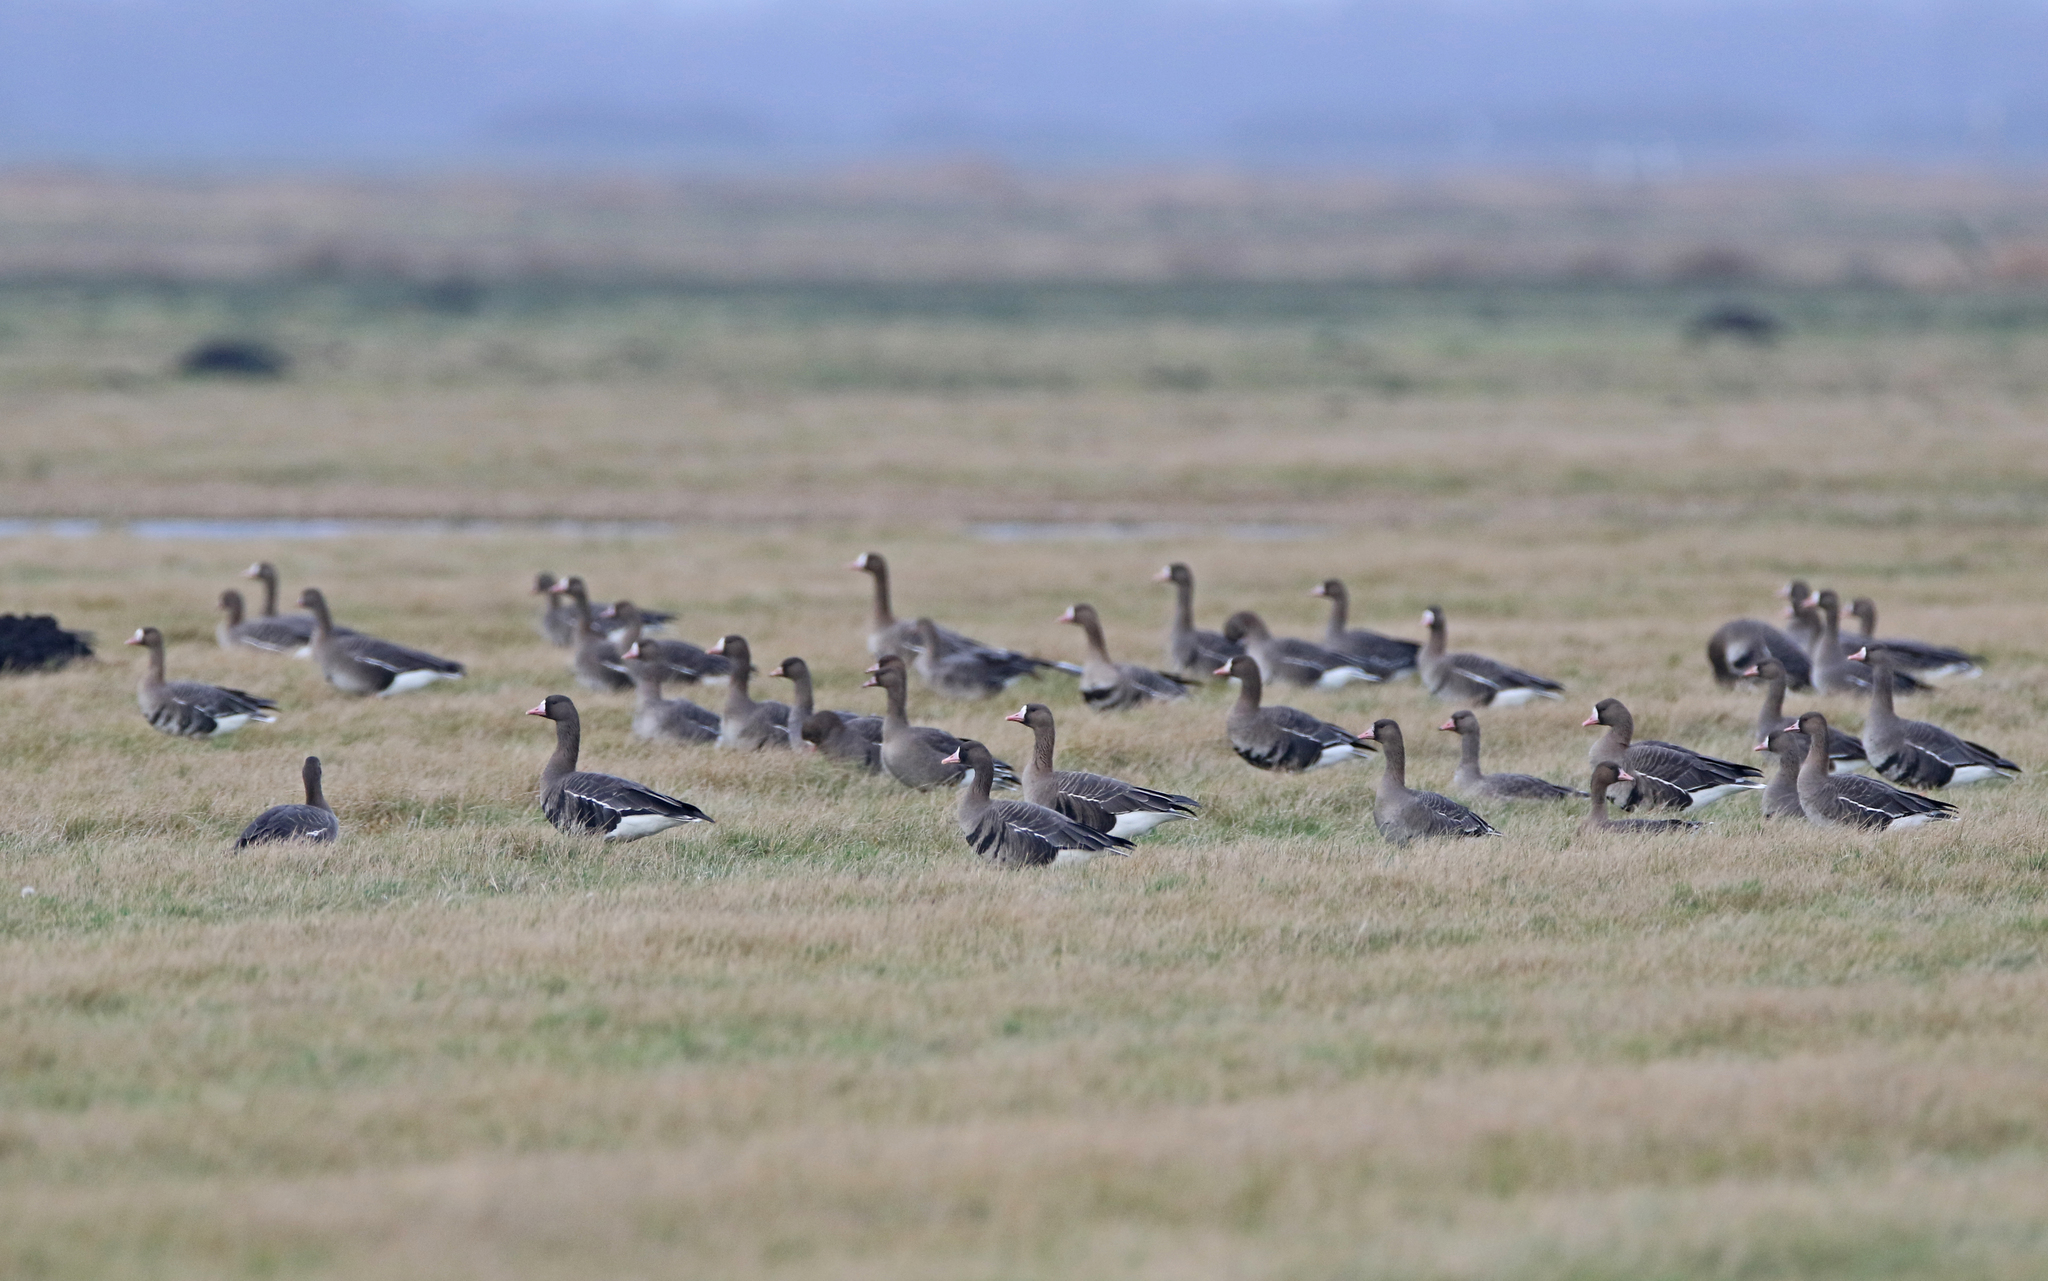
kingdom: Animalia
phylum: Chordata
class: Aves
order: Anseriformes
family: Anatidae
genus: Anser
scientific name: Anser albifrons
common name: Greater white-fronted goose
